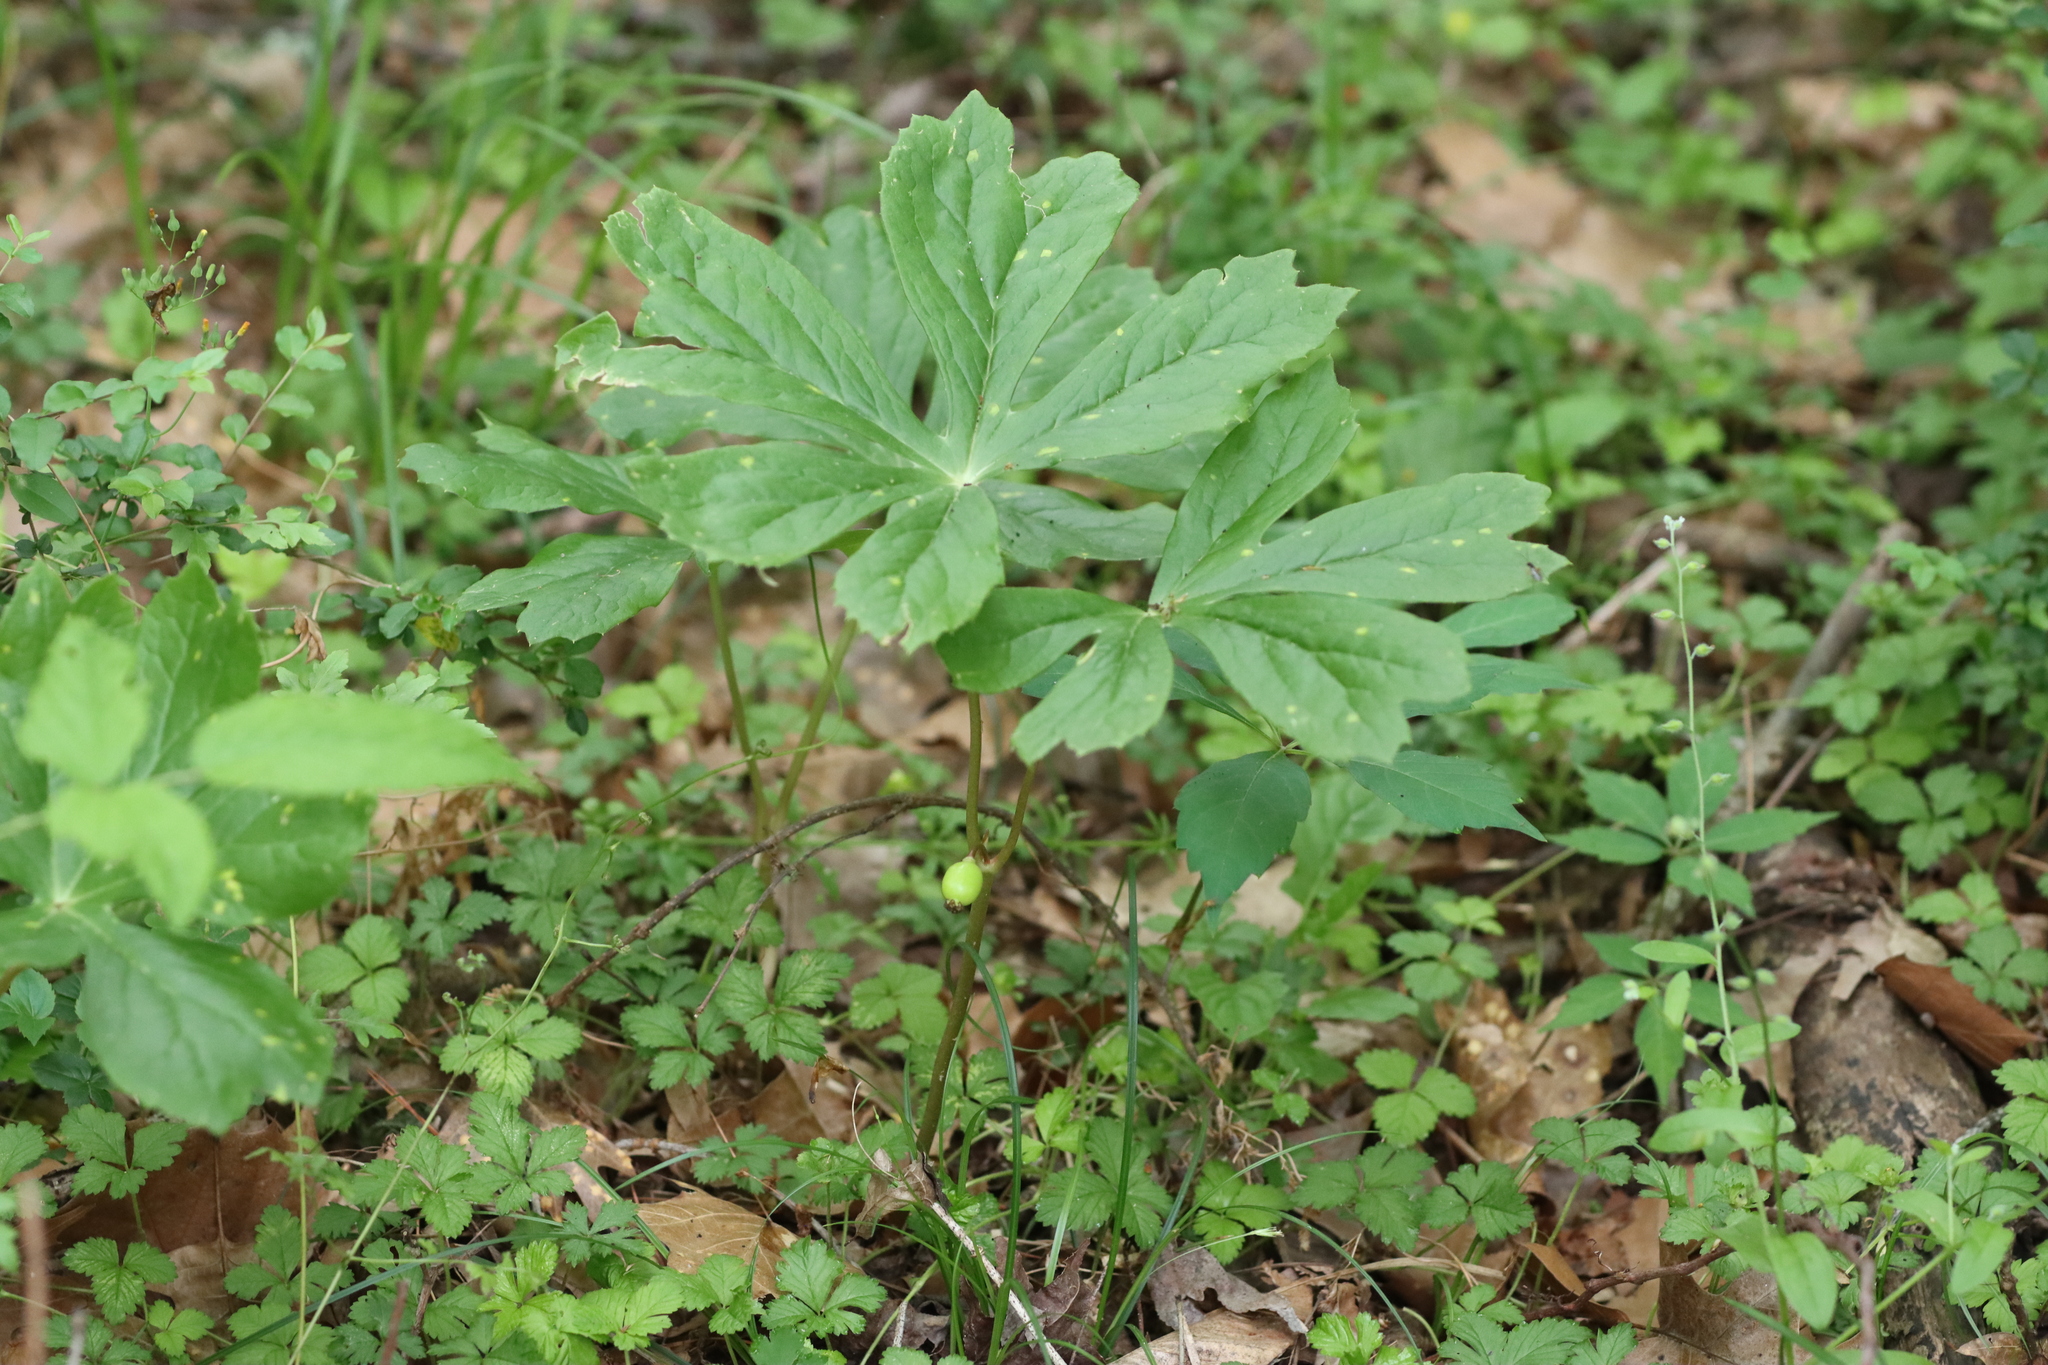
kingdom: Plantae
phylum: Tracheophyta
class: Magnoliopsida
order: Ranunculales
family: Berberidaceae
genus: Podophyllum
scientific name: Podophyllum peltatum
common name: Wild mandrake
